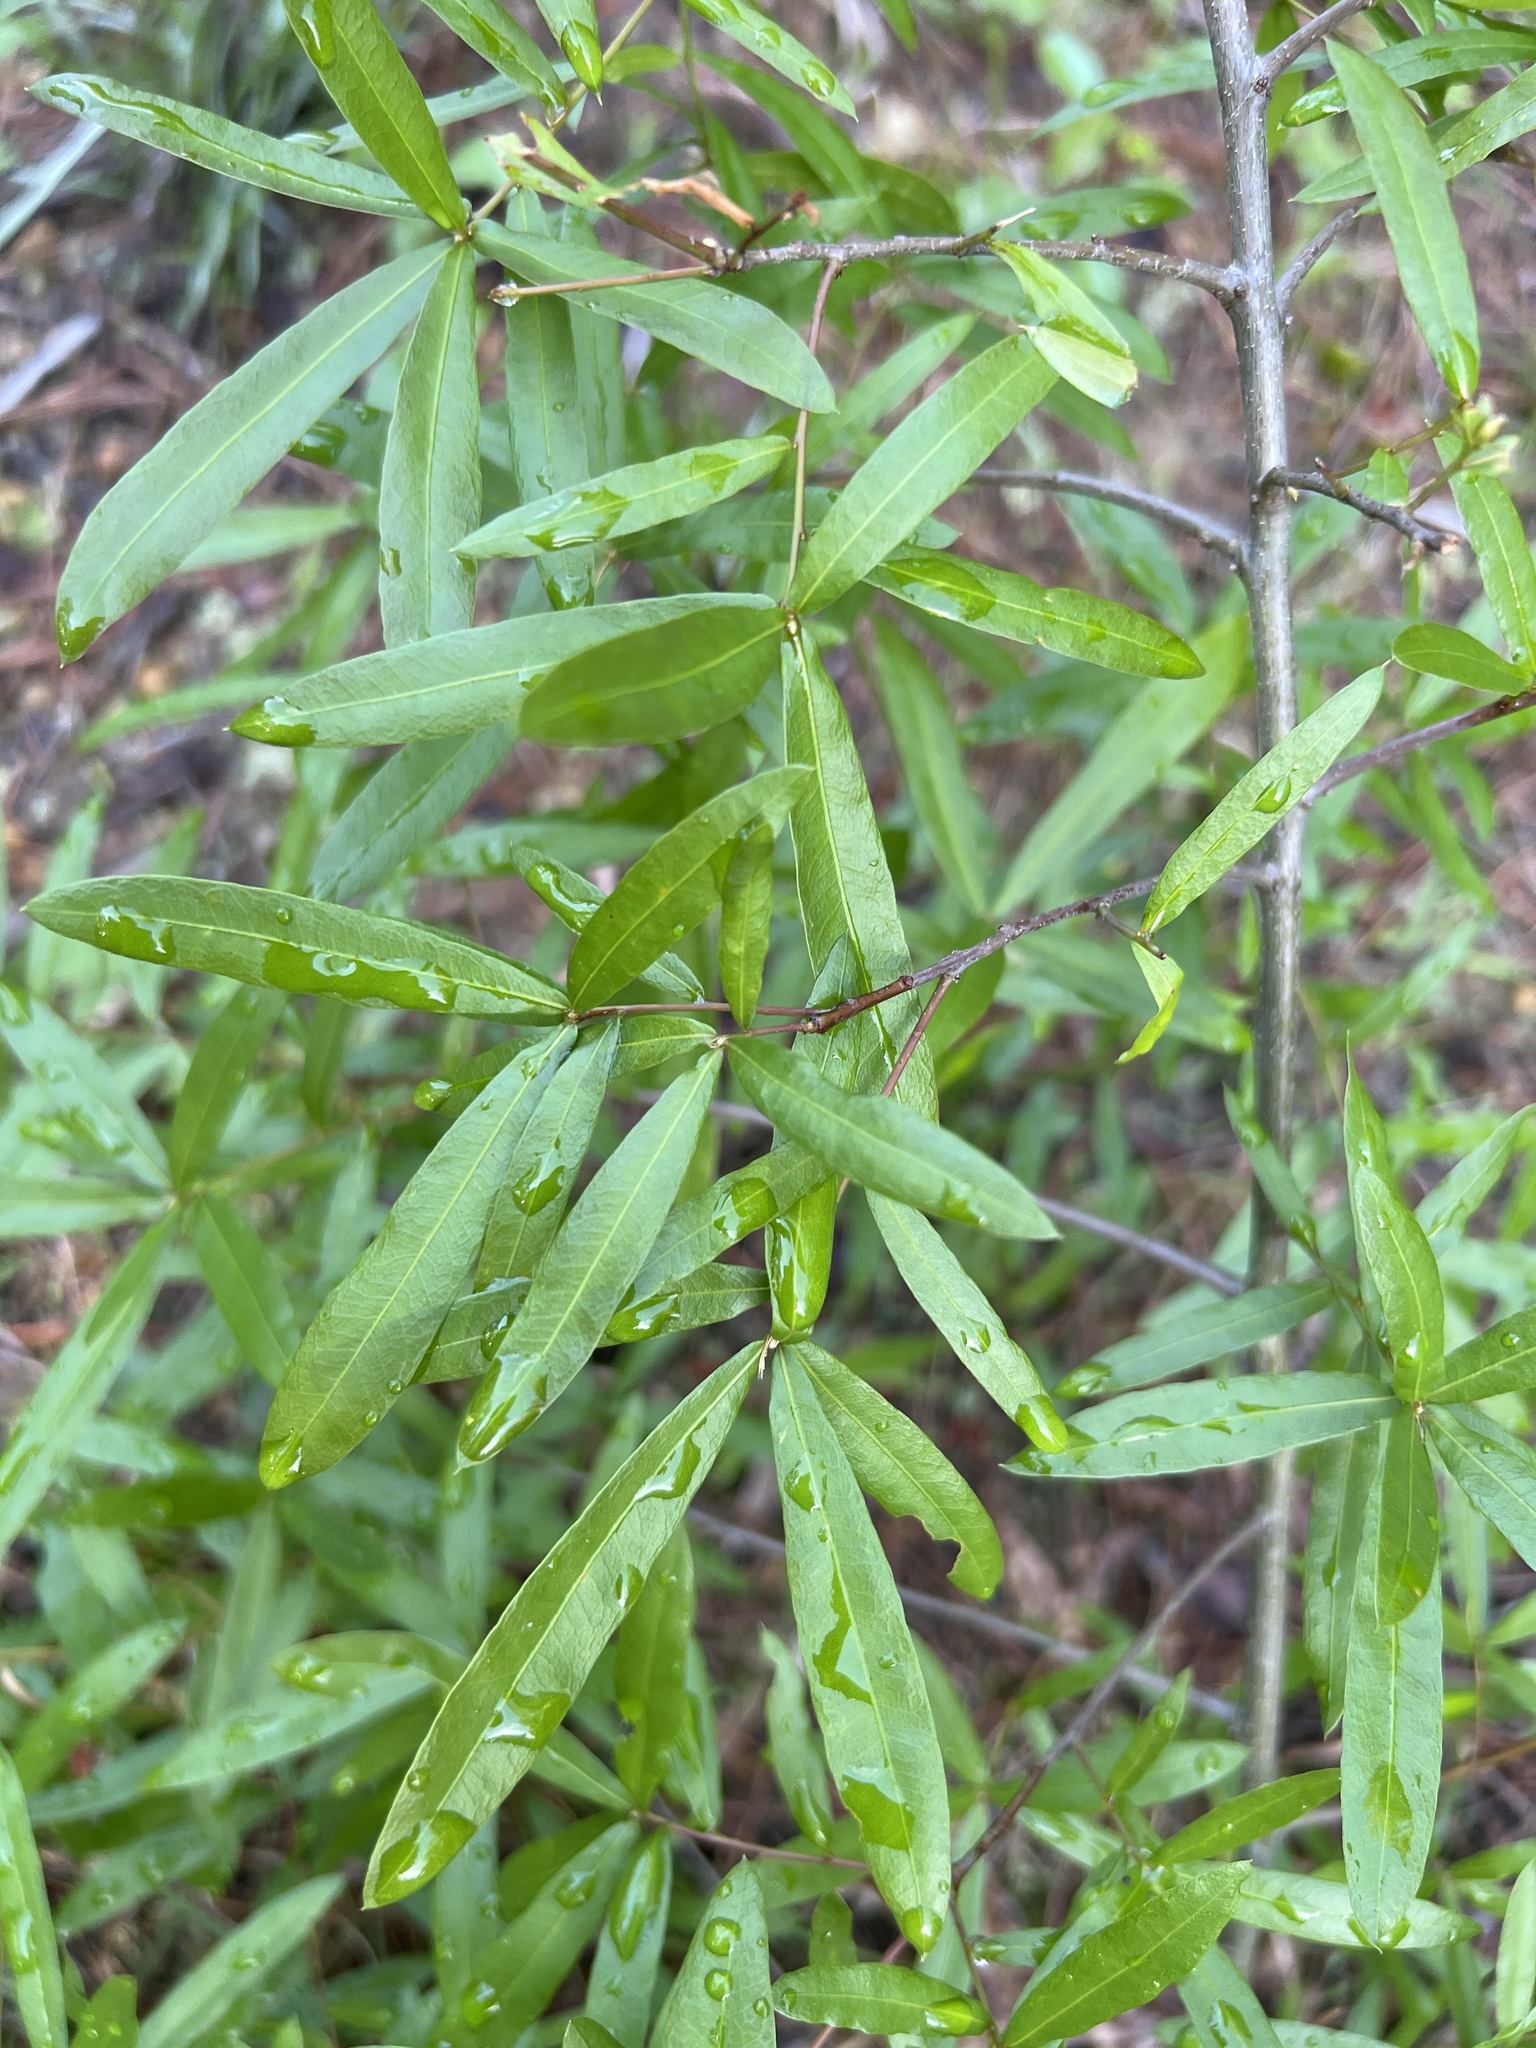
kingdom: Plantae
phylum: Tracheophyta
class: Magnoliopsida
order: Fagales
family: Fagaceae
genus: Quercus
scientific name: Quercus phellos
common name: Willow oak
